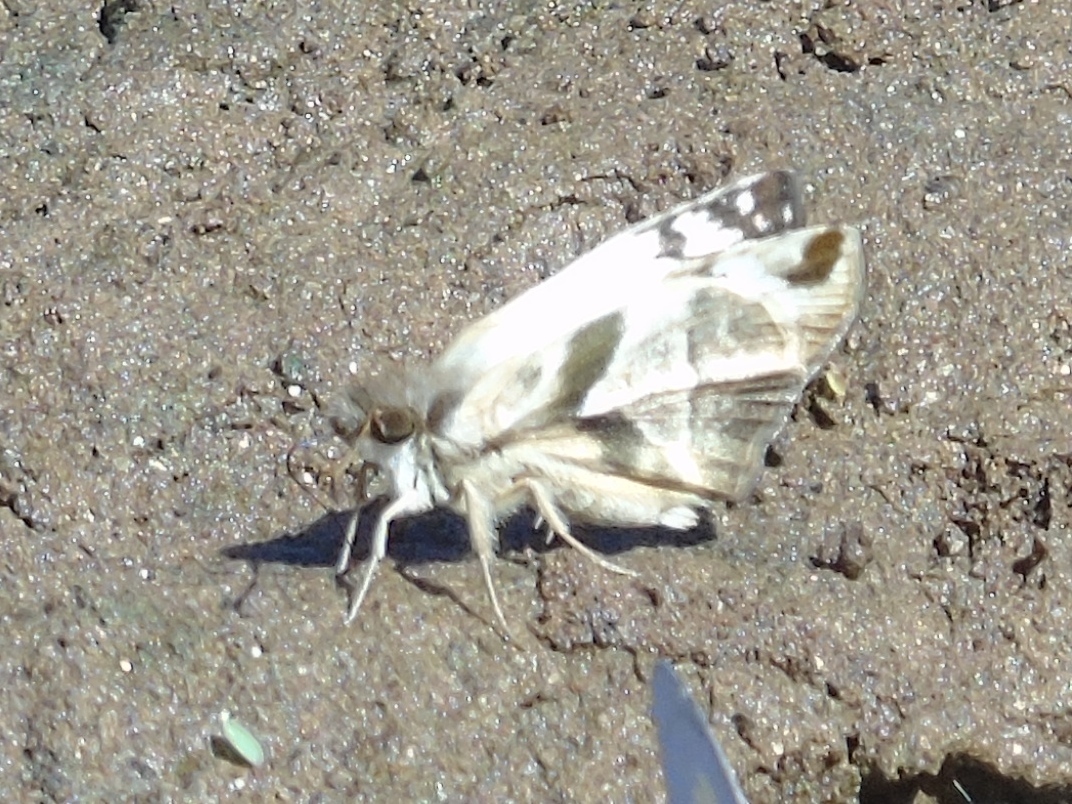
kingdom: Animalia
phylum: Arthropoda
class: Insecta
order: Lepidoptera
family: Hesperiidae
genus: Heliopetes
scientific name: Heliopetes laviana
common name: Laviana white-skipper
